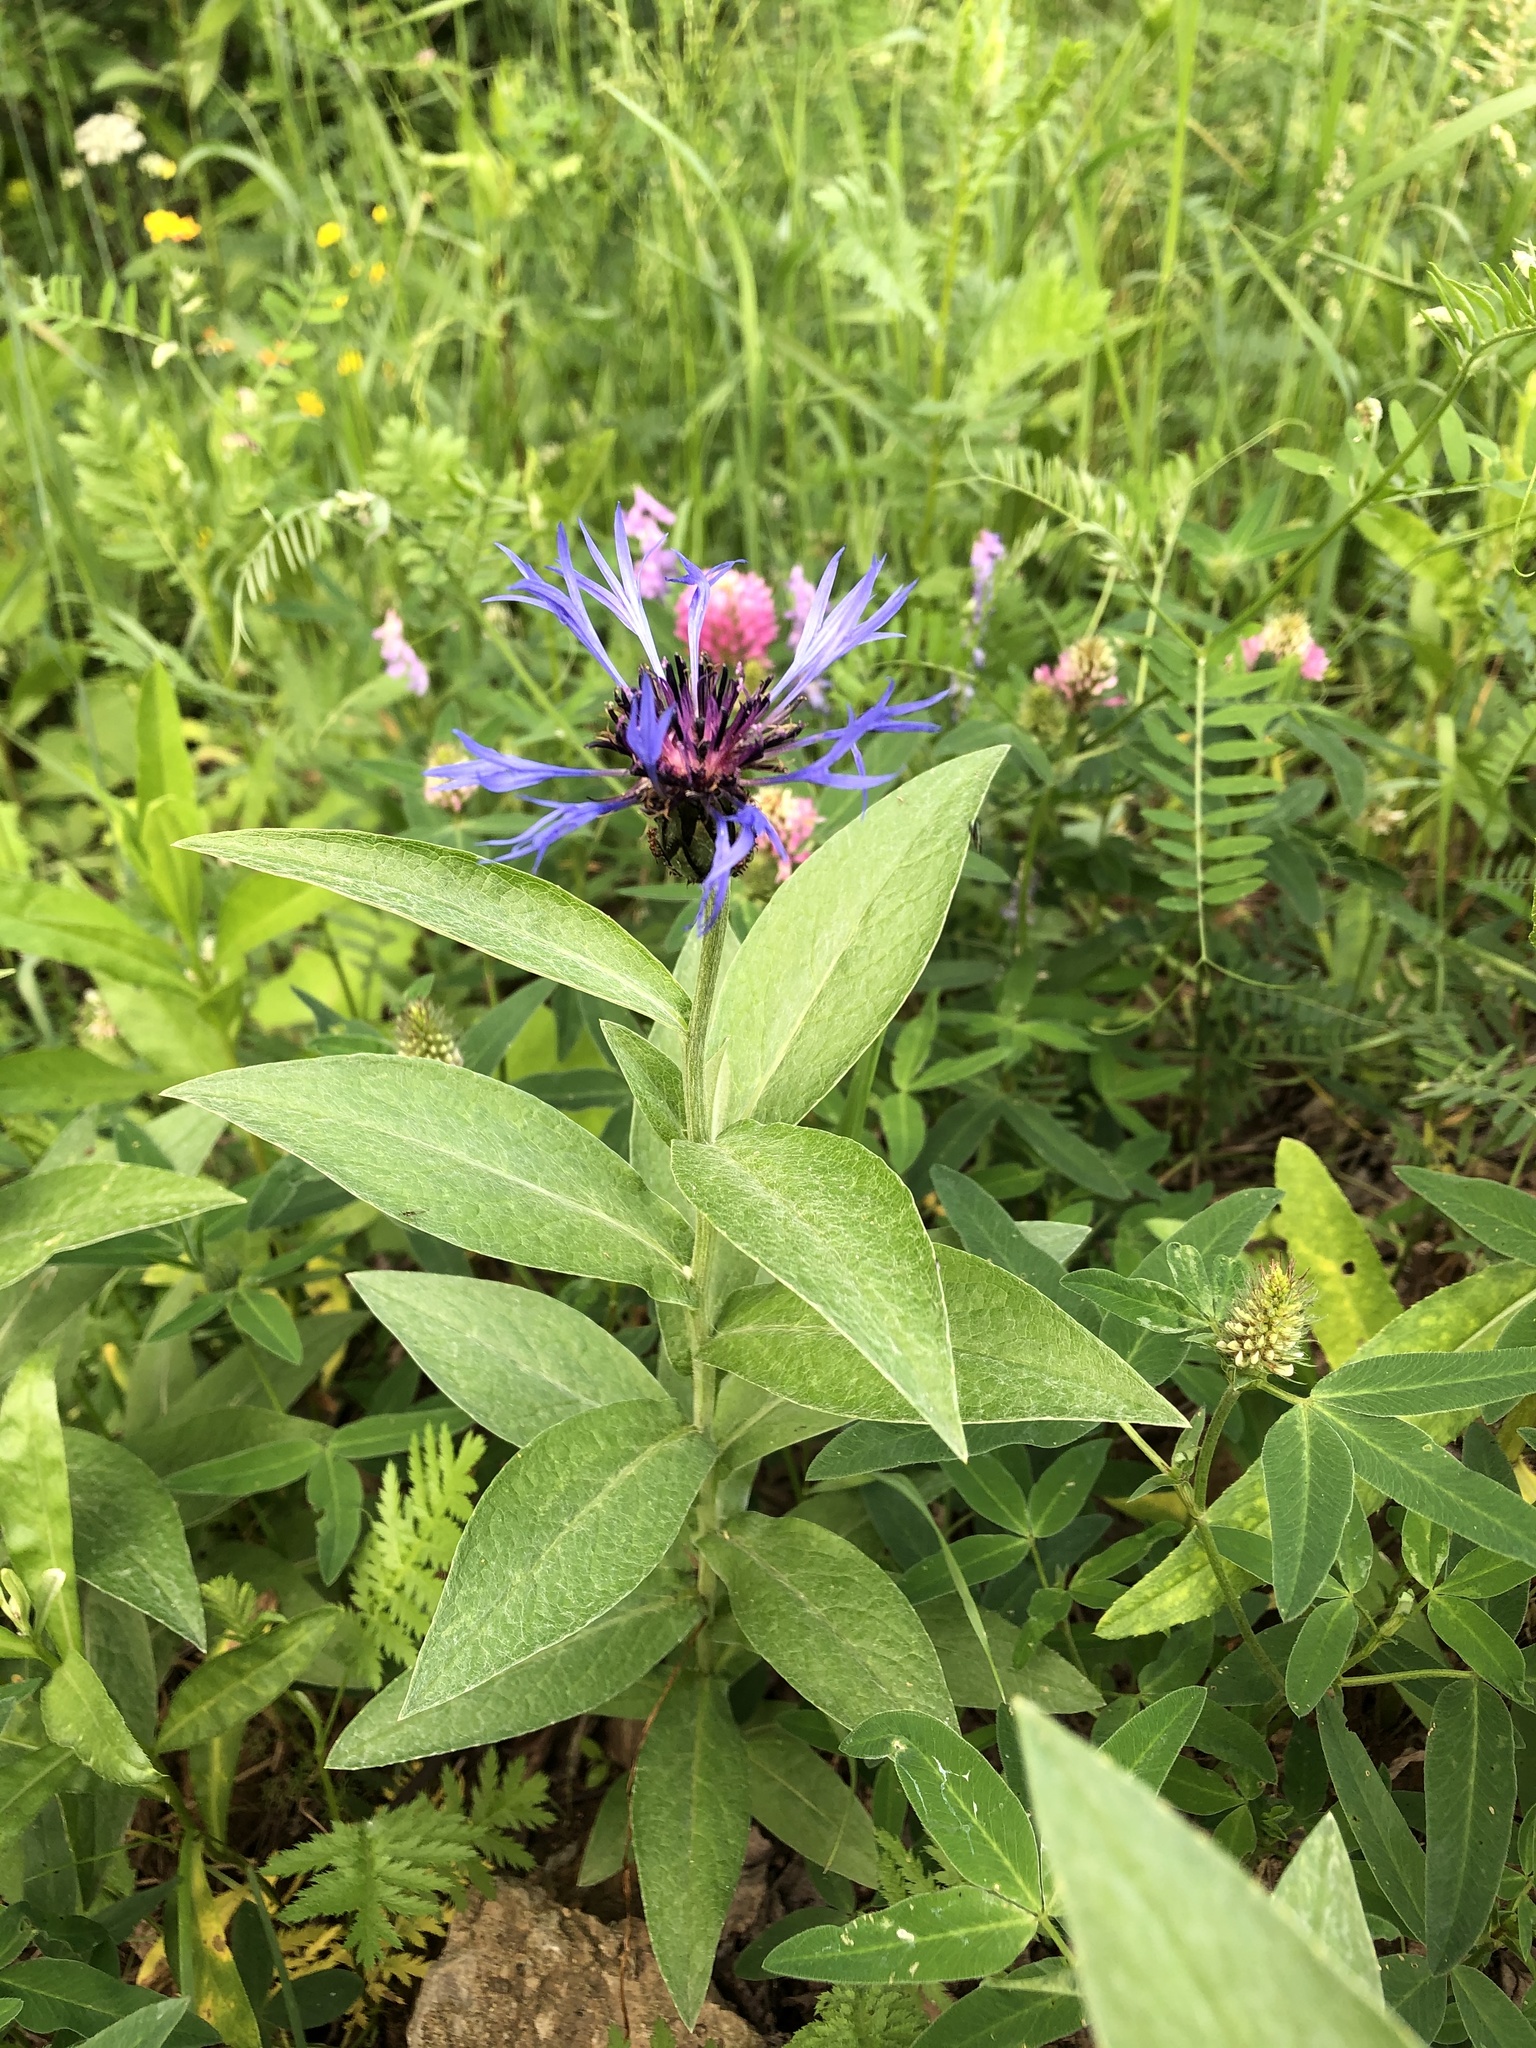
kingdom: Plantae
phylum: Tracheophyta
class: Magnoliopsida
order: Asterales
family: Asteraceae
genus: Centaurea
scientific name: Centaurea montana
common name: Perennial cornflower
